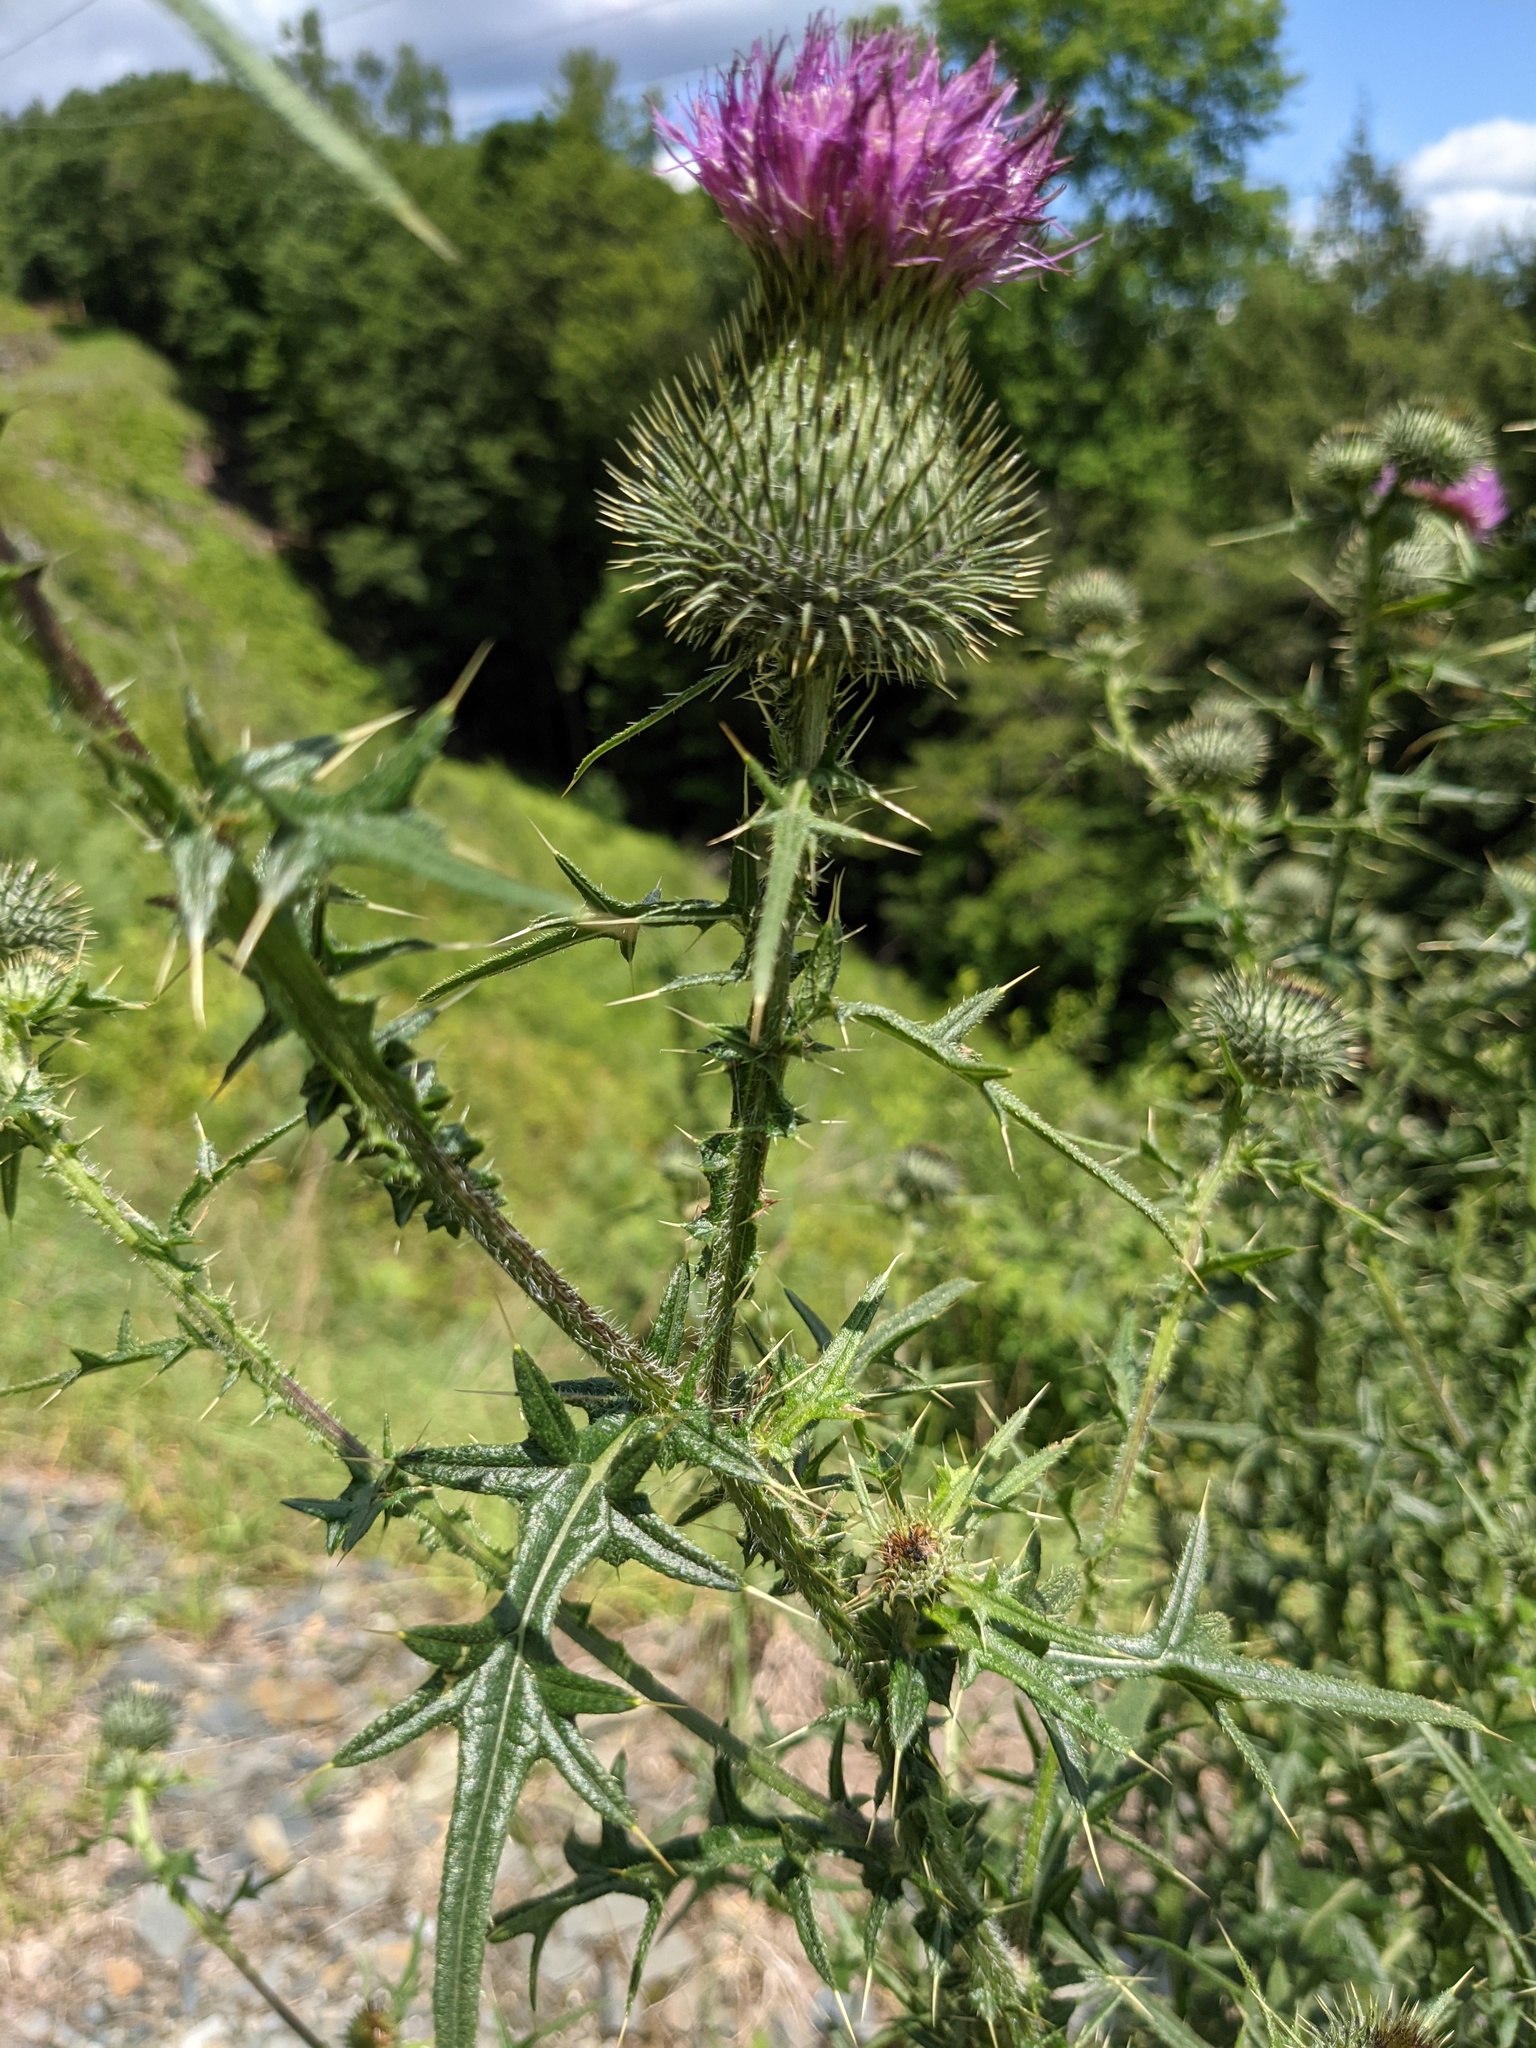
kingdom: Plantae
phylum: Tracheophyta
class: Magnoliopsida
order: Asterales
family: Asteraceae
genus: Cirsium
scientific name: Cirsium vulgare
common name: Bull thistle
